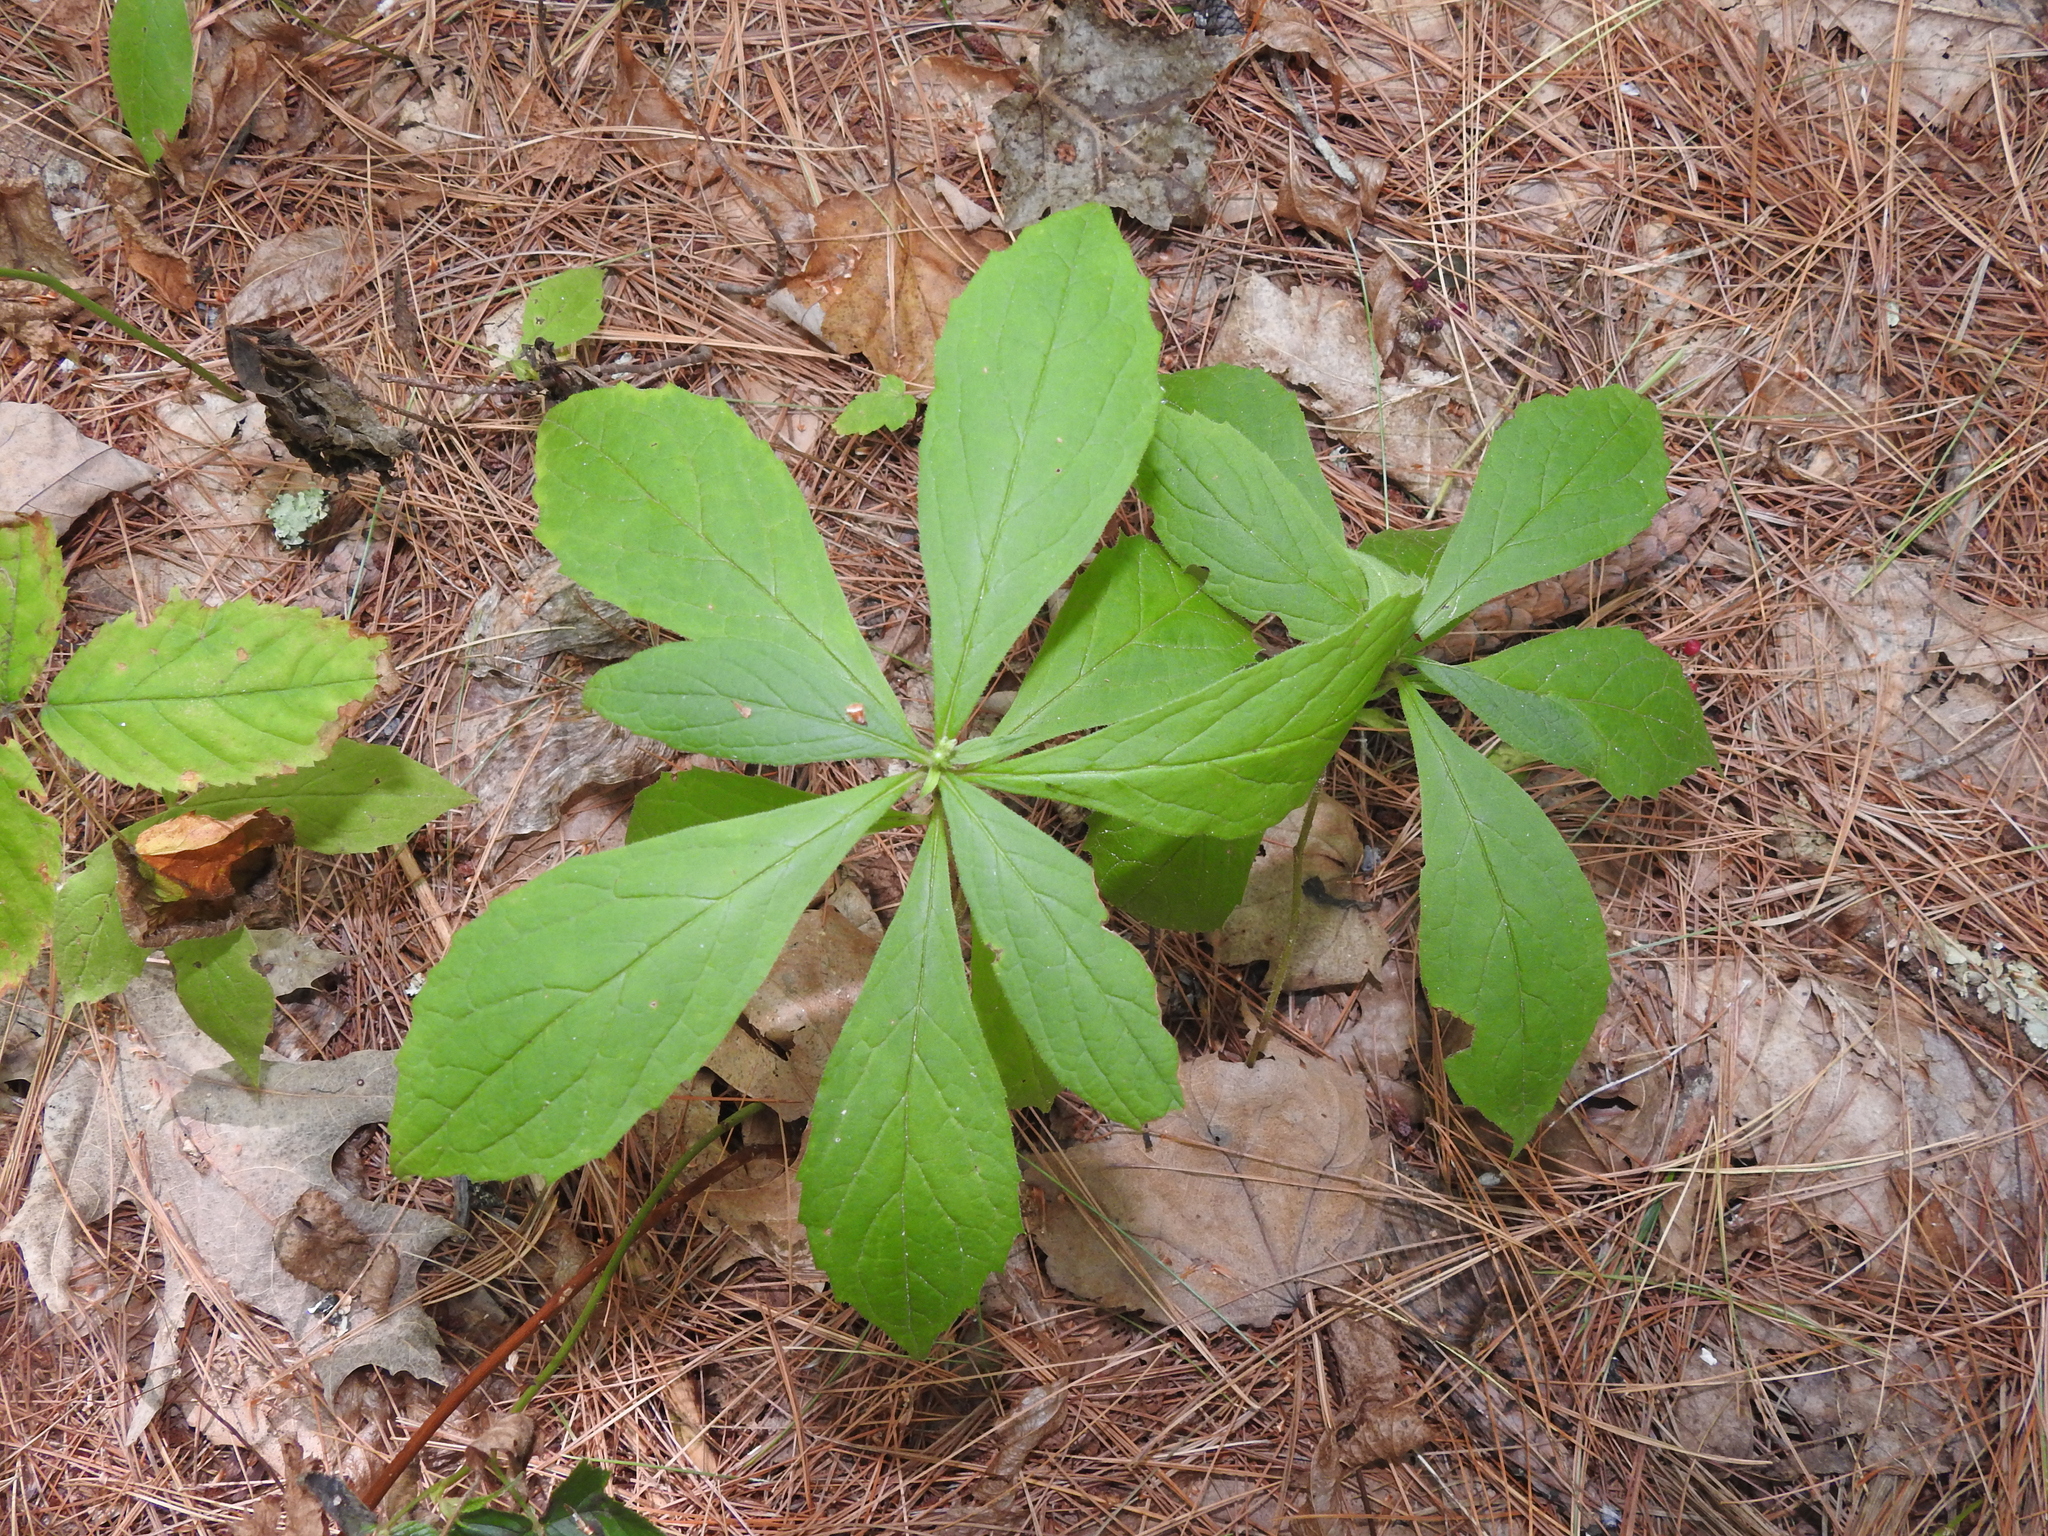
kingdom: Plantae
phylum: Tracheophyta
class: Magnoliopsida
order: Asterales
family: Asteraceae
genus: Oclemena
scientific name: Oclemena acuminata
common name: Mountain aster
